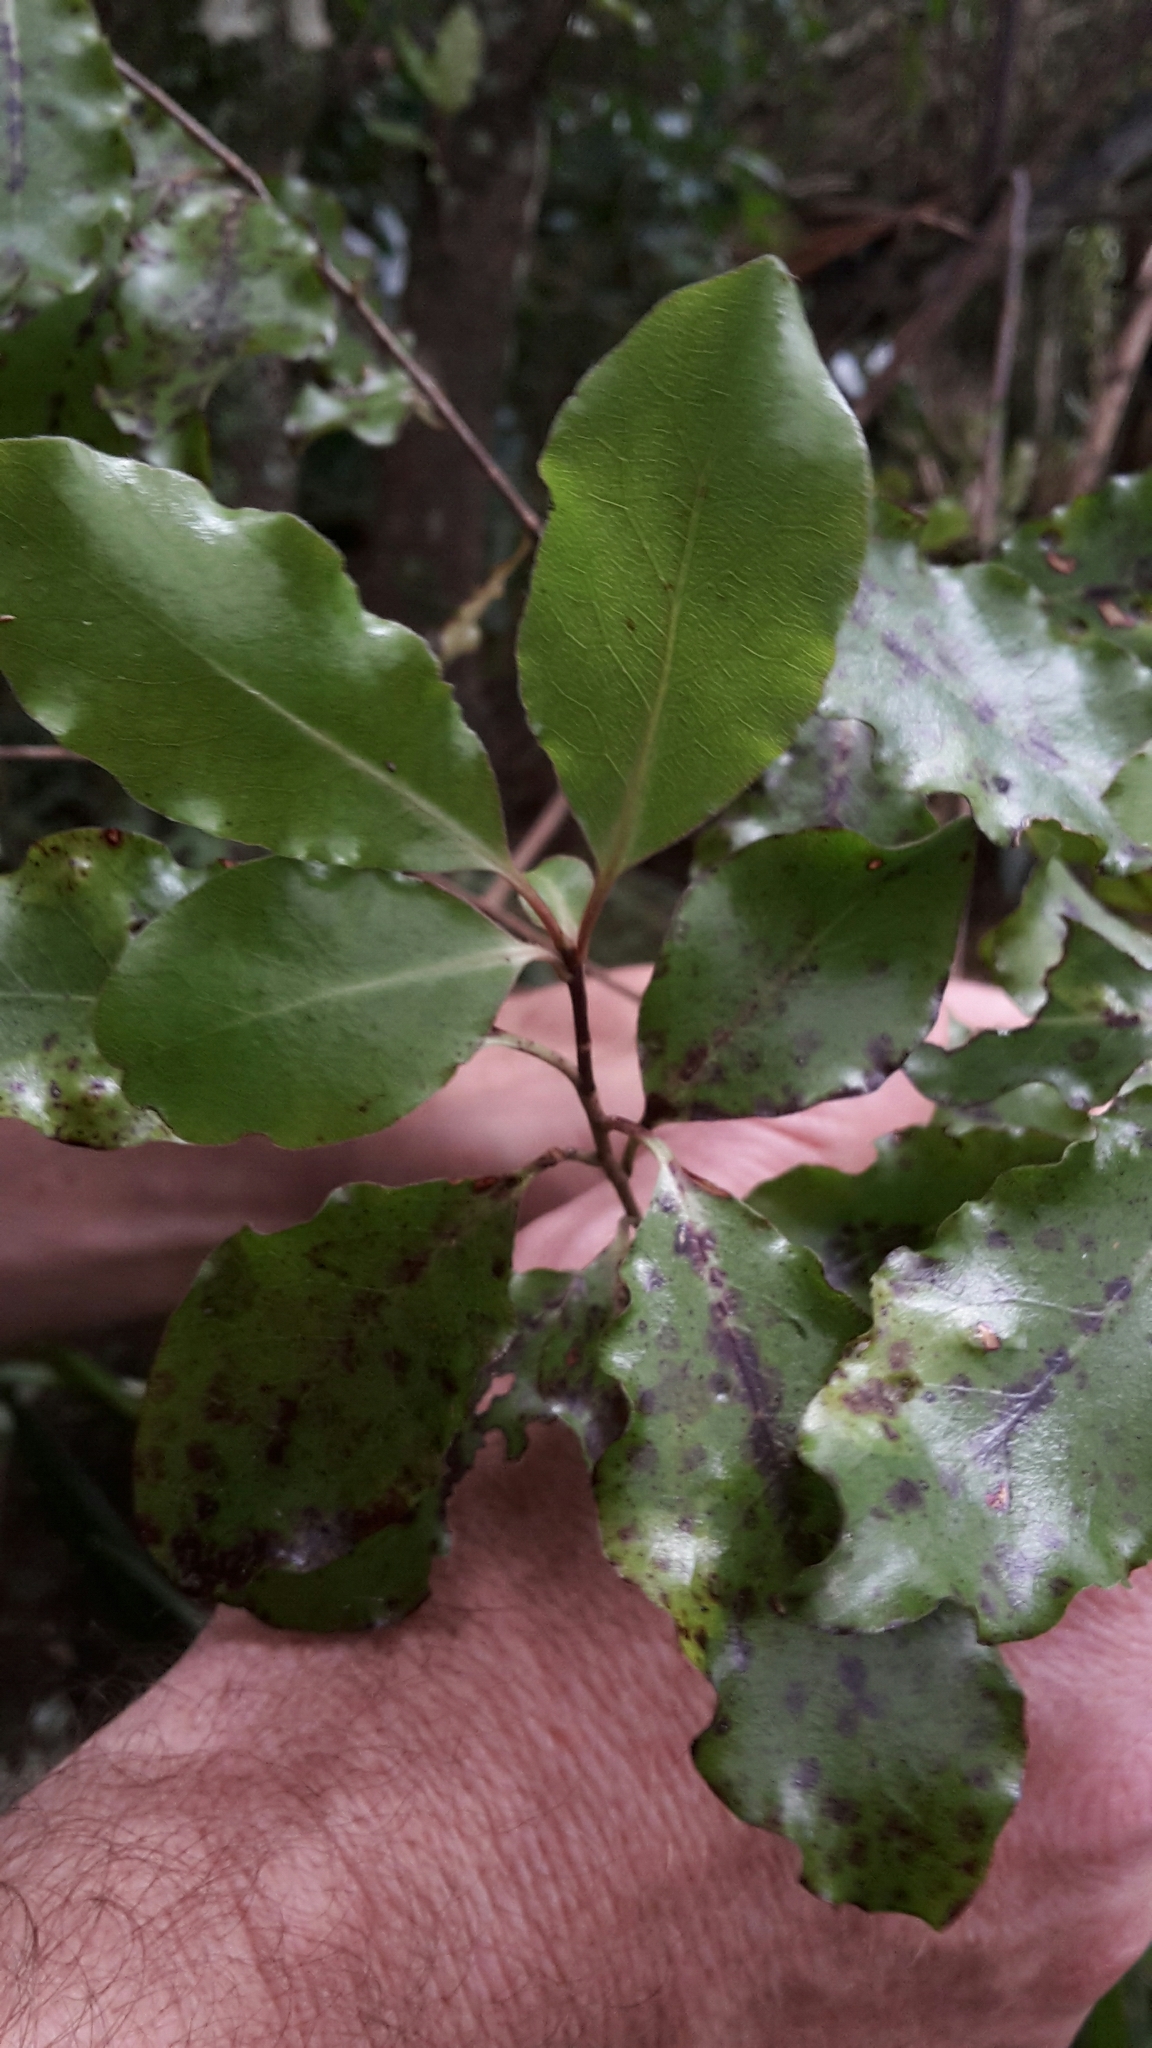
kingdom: Plantae
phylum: Tracheophyta
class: Magnoliopsida
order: Apiales
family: Pittosporaceae
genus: Pittosporum
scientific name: Pittosporum tenuifolium
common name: Kohuhu
